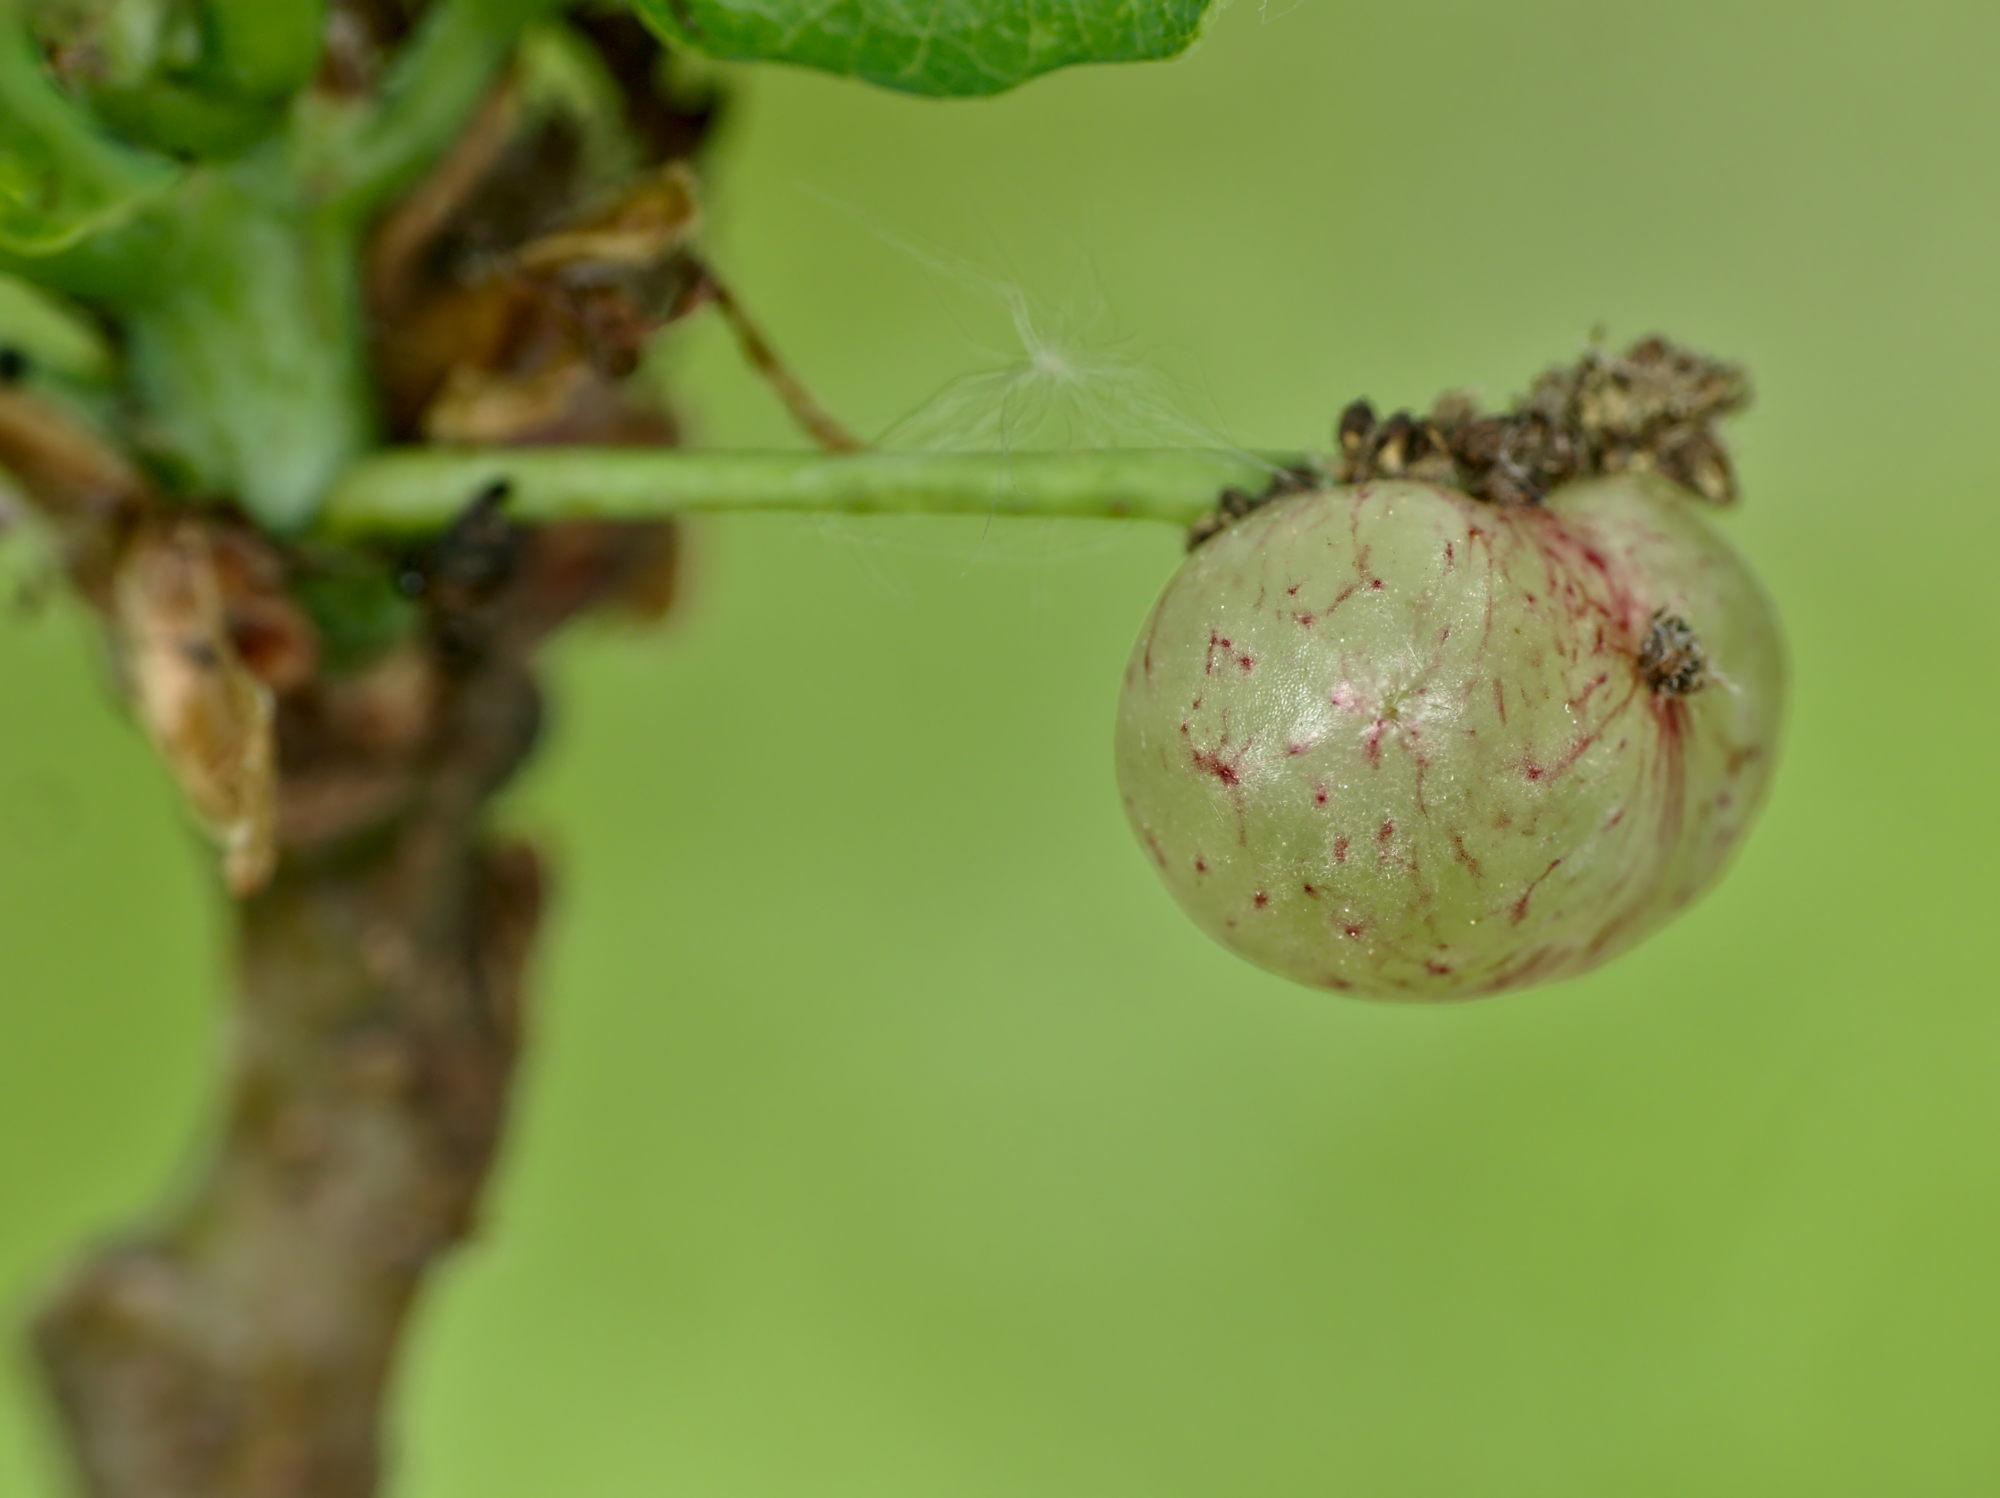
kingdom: Animalia
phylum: Arthropoda
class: Insecta
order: Hymenoptera
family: Cynipidae
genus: Neuroterus
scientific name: Neuroterus quercusbaccarum
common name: Common spangle gall
